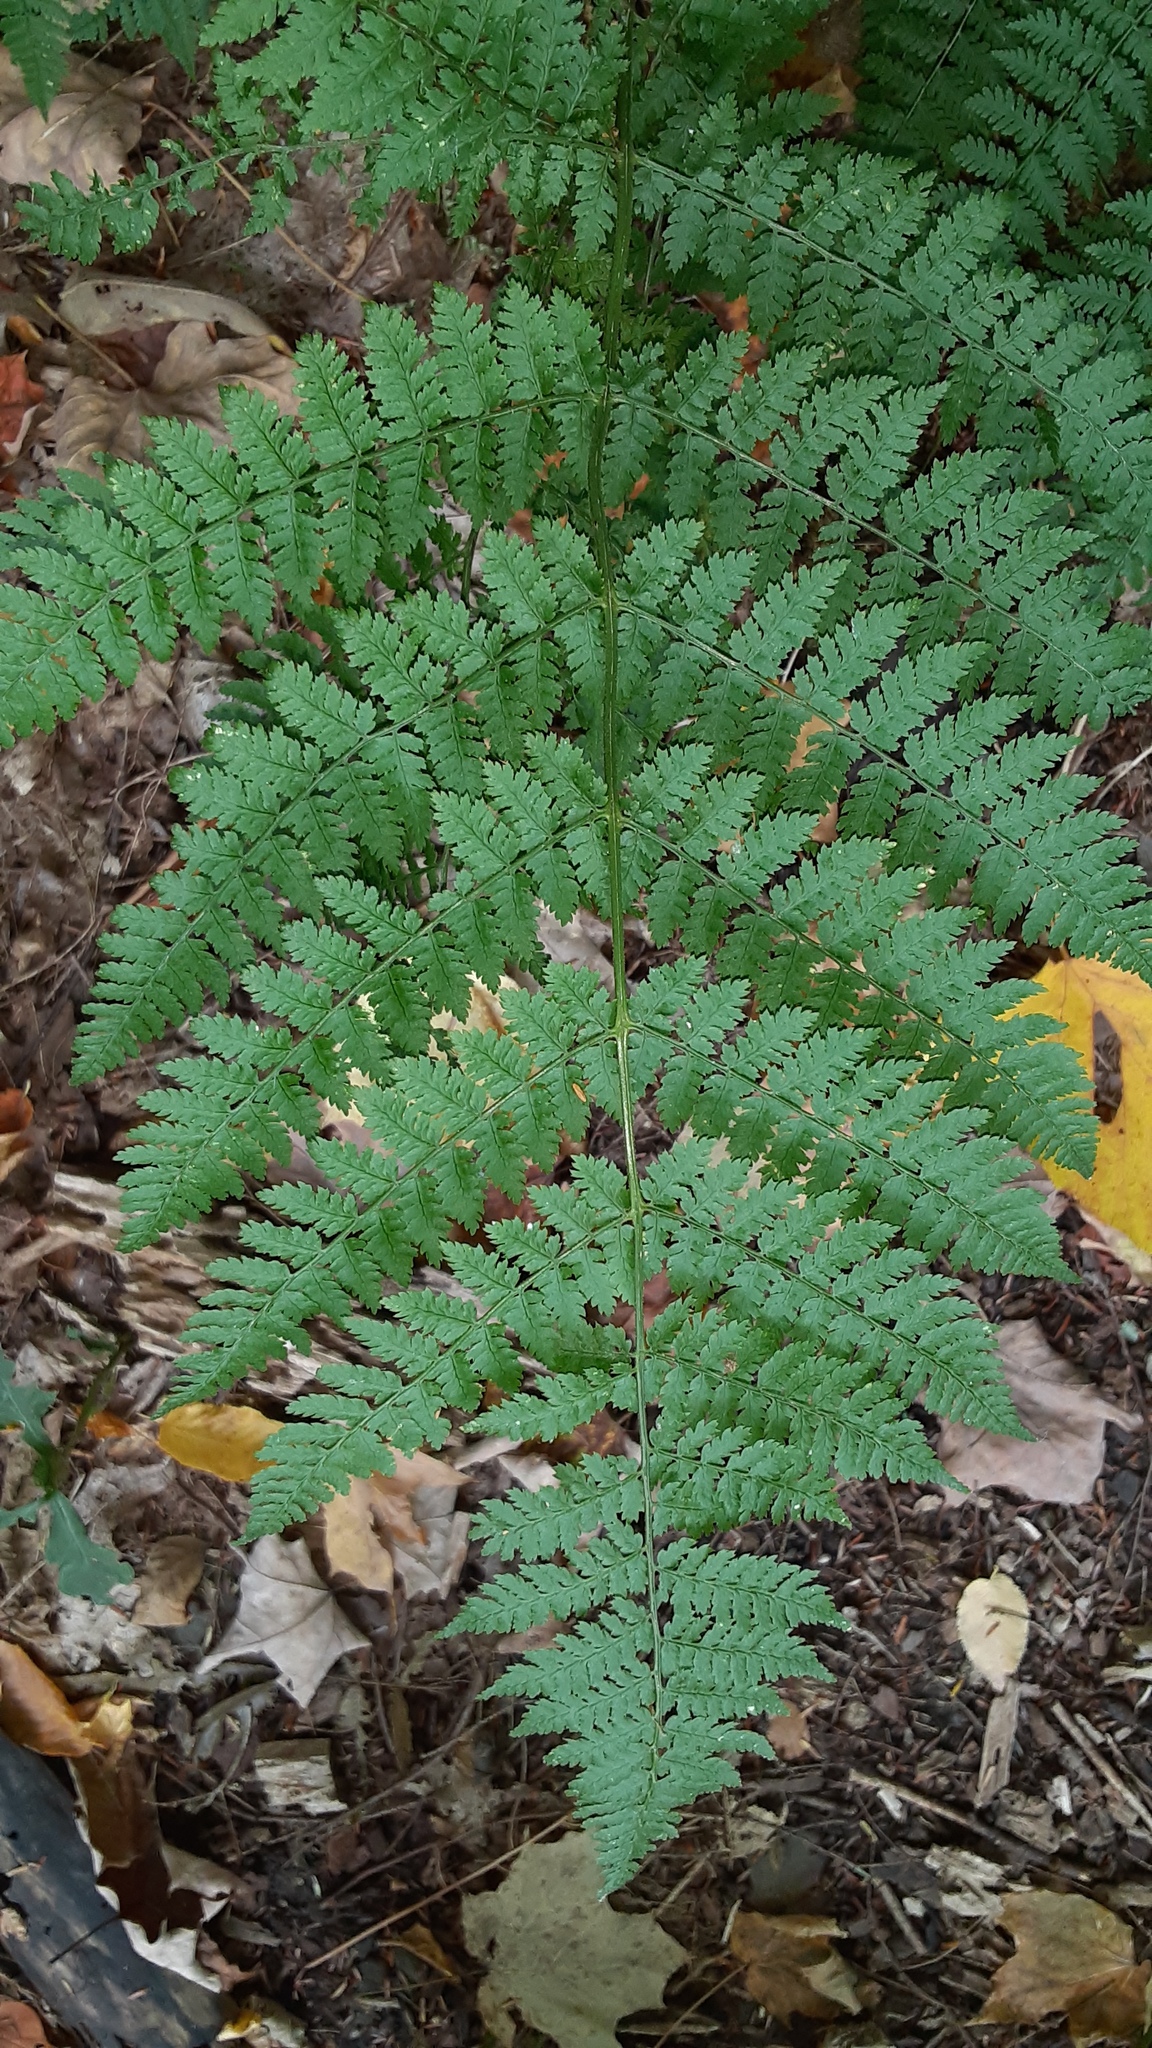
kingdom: Plantae
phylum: Tracheophyta
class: Polypodiopsida
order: Polypodiales
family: Dryopteridaceae
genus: Dryopteris
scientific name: Dryopteris intermedia
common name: Evergreen wood fern
